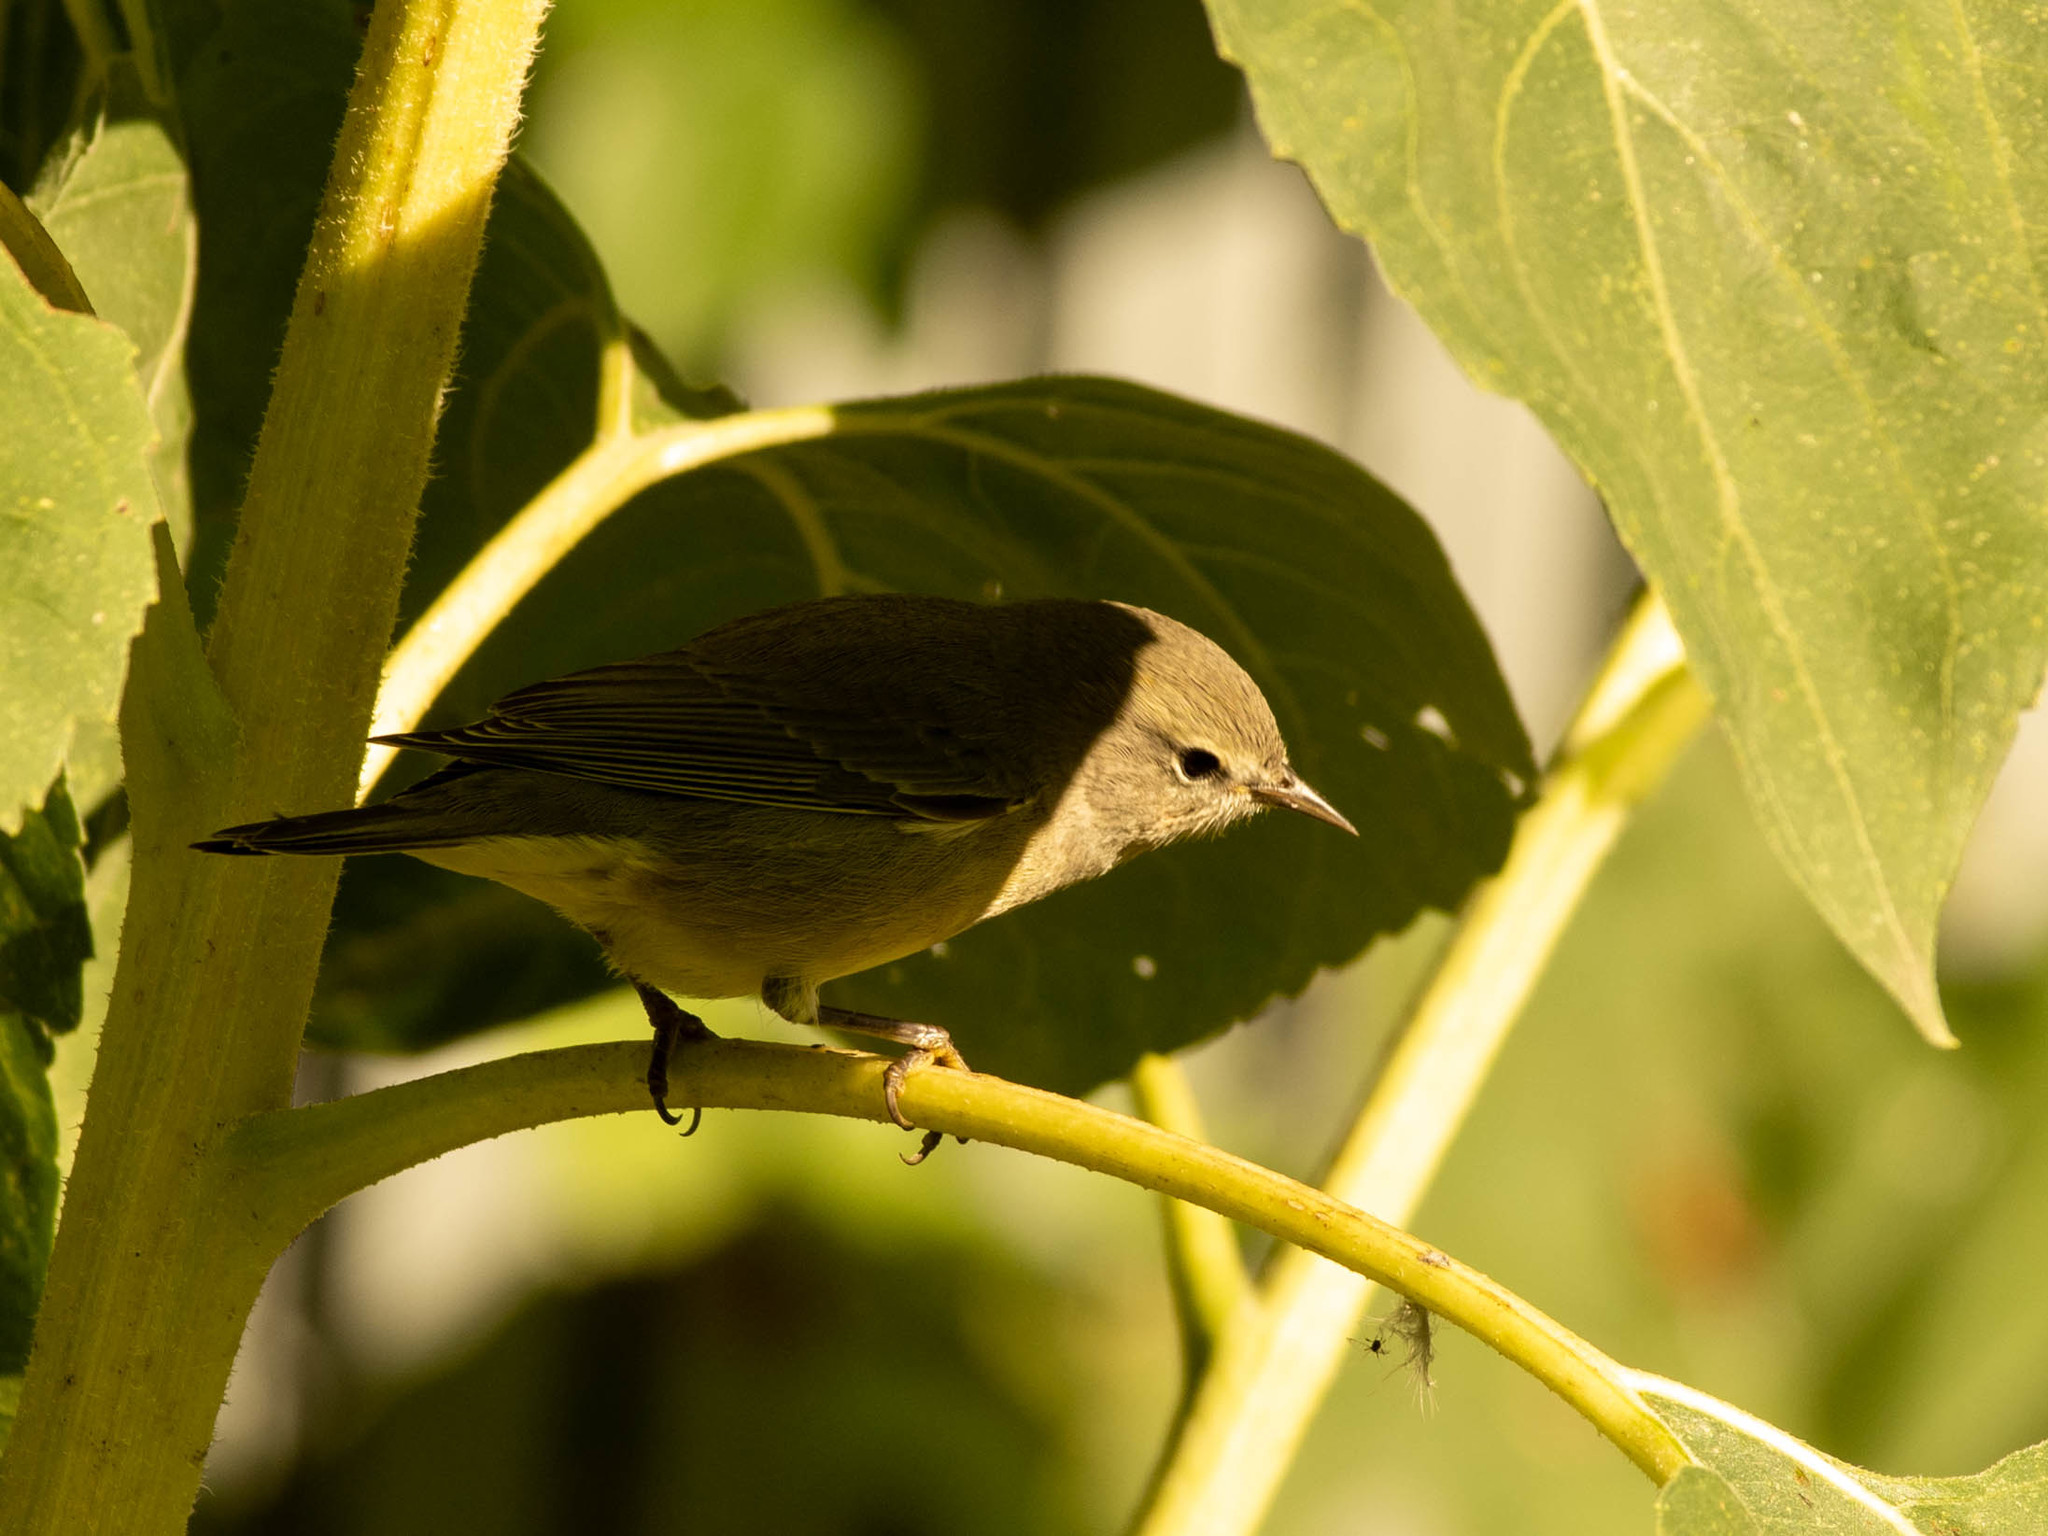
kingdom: Animalia
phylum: Chordata
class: Aves
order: Passeriformes
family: Parulidae
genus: Leiothlypis
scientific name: Leiothlypis celata
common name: Orange-crowned warbler
